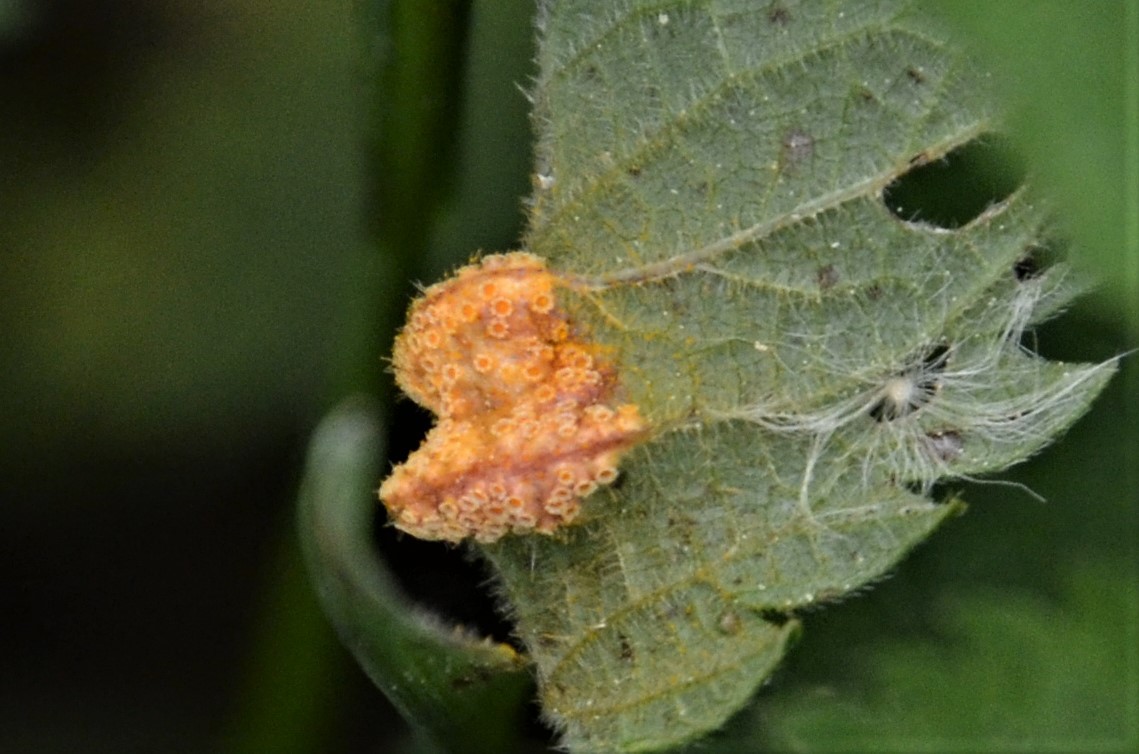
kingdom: Fungi
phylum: Basidiomycota
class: Pucciniomycetes
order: Pucciniales
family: Pucciniaceae
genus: Puccinia
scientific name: Puccinia urticata
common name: Nettle clustercup rust fungus
